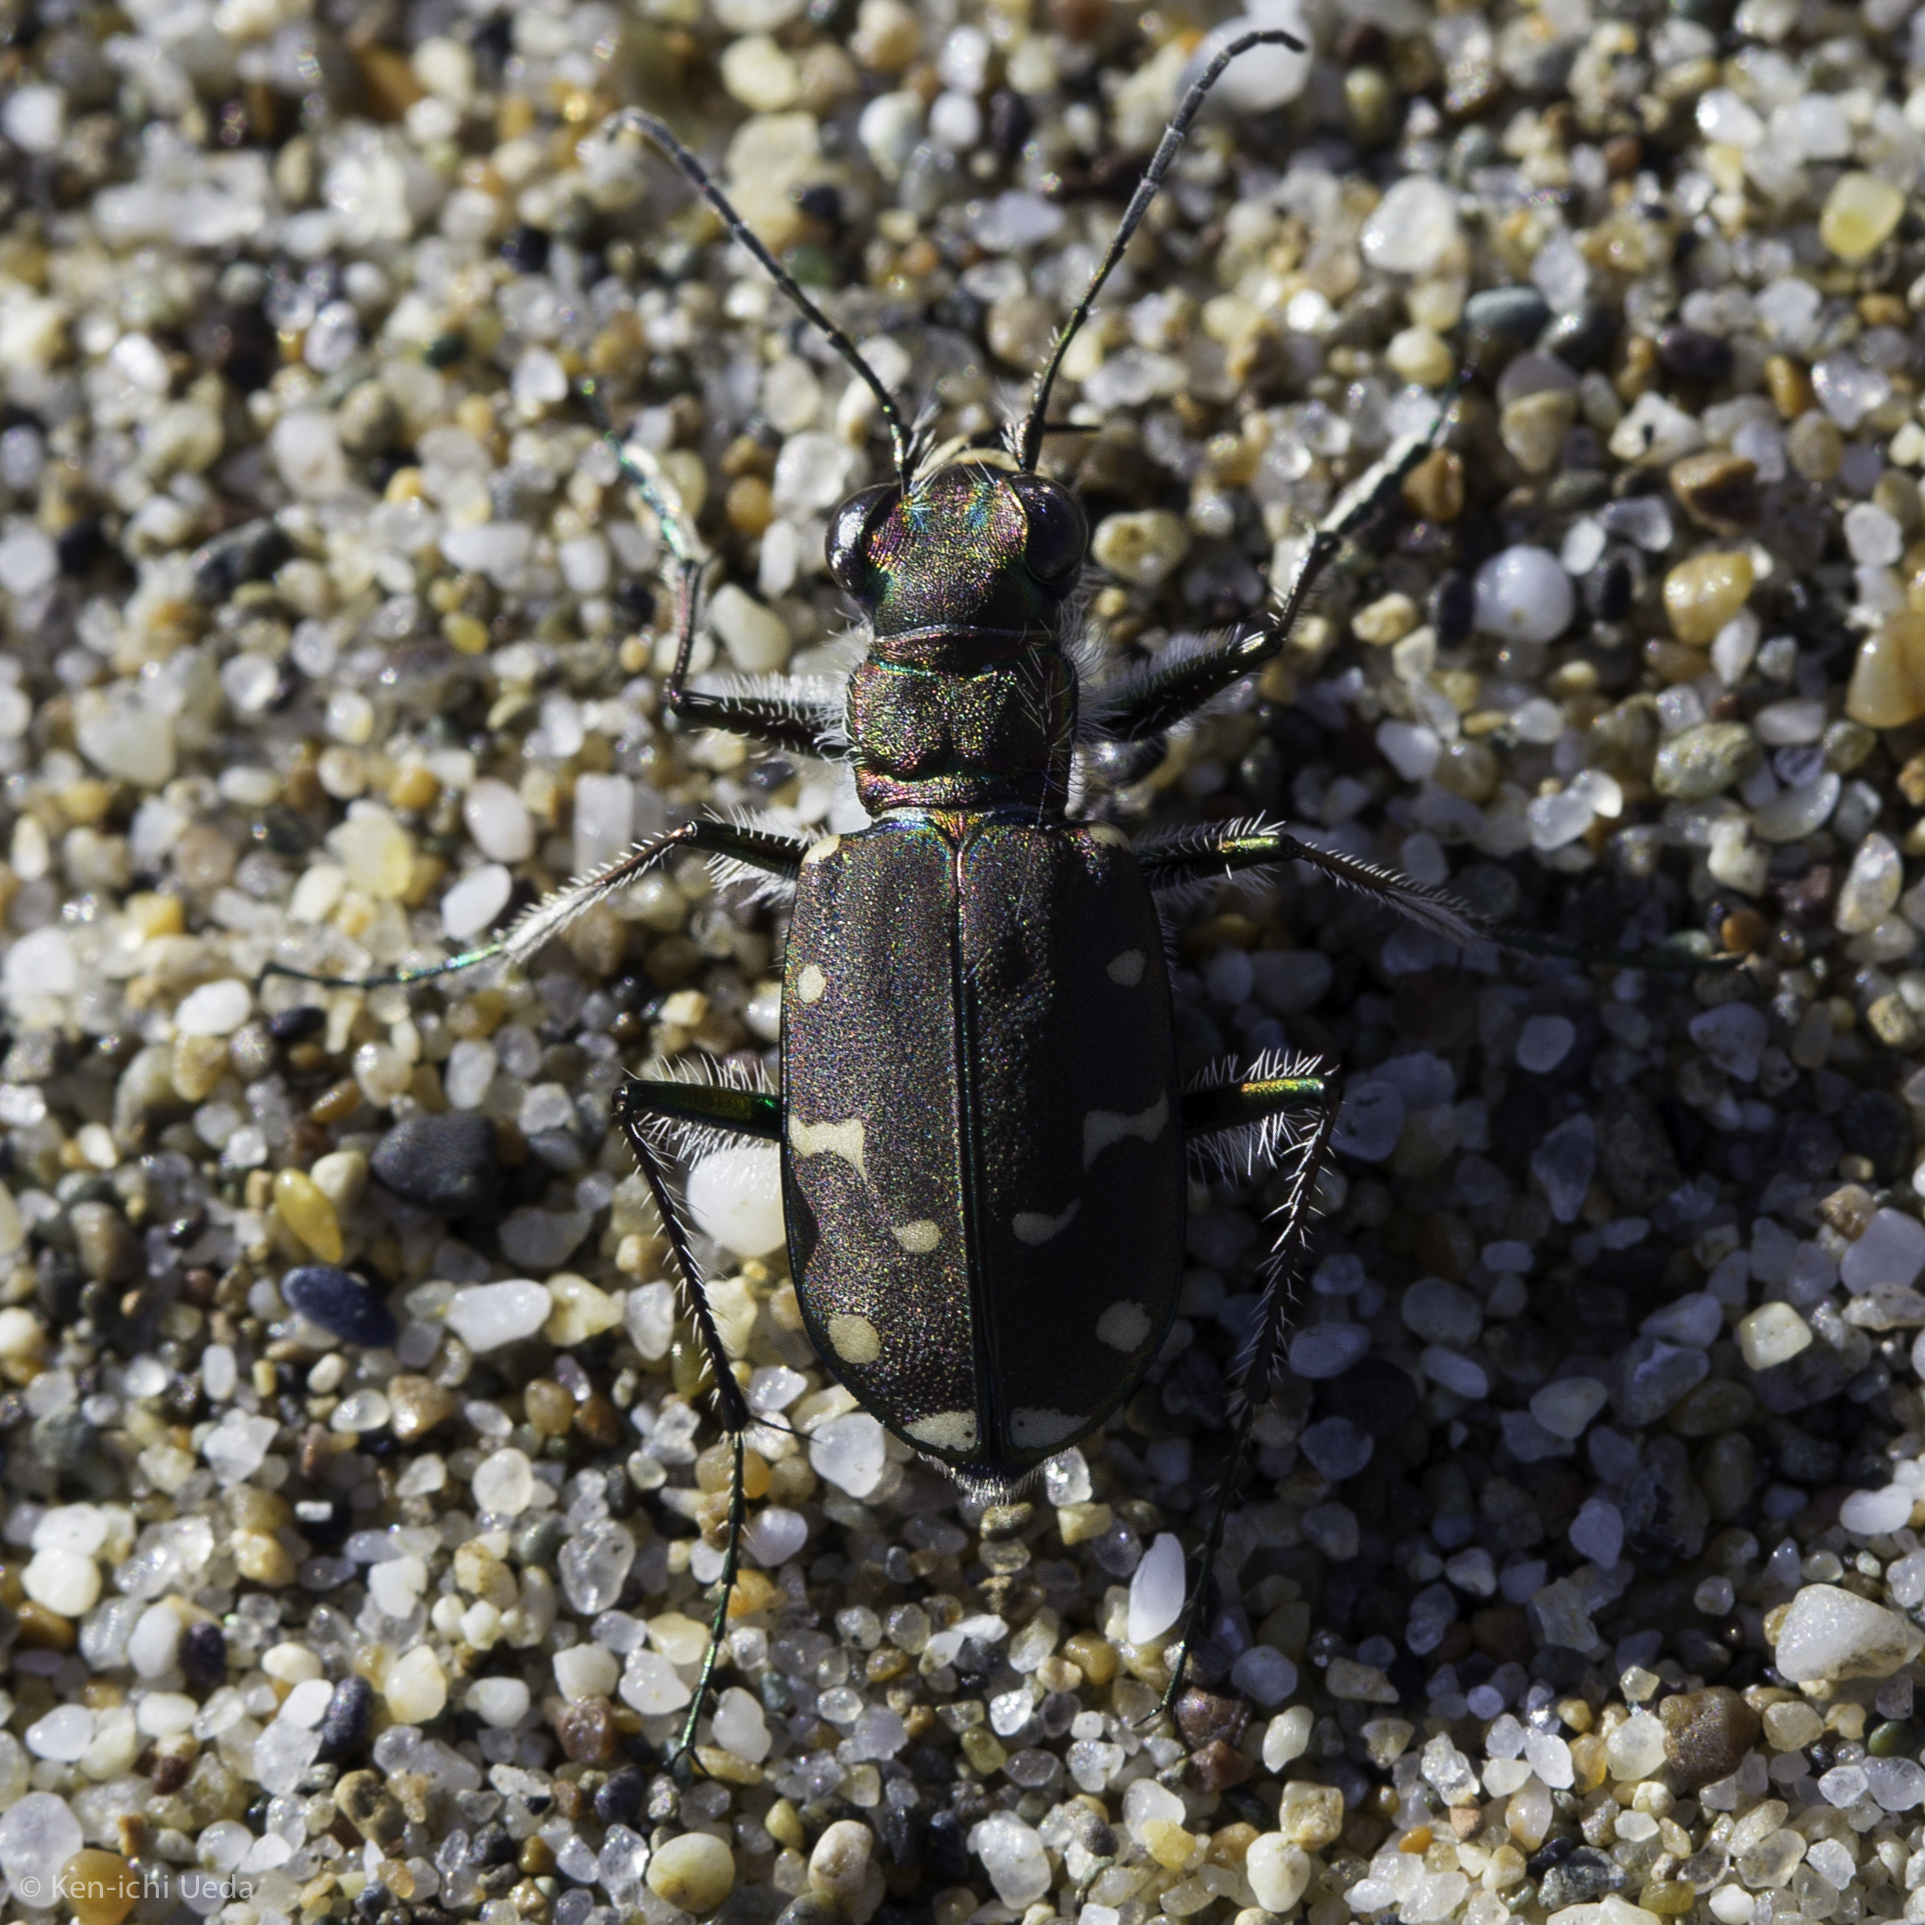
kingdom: Animalia
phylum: Arthropoda
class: Insecta
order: Coleoptera
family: Carabidae
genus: Cicindela
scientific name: Cicindela oregona
